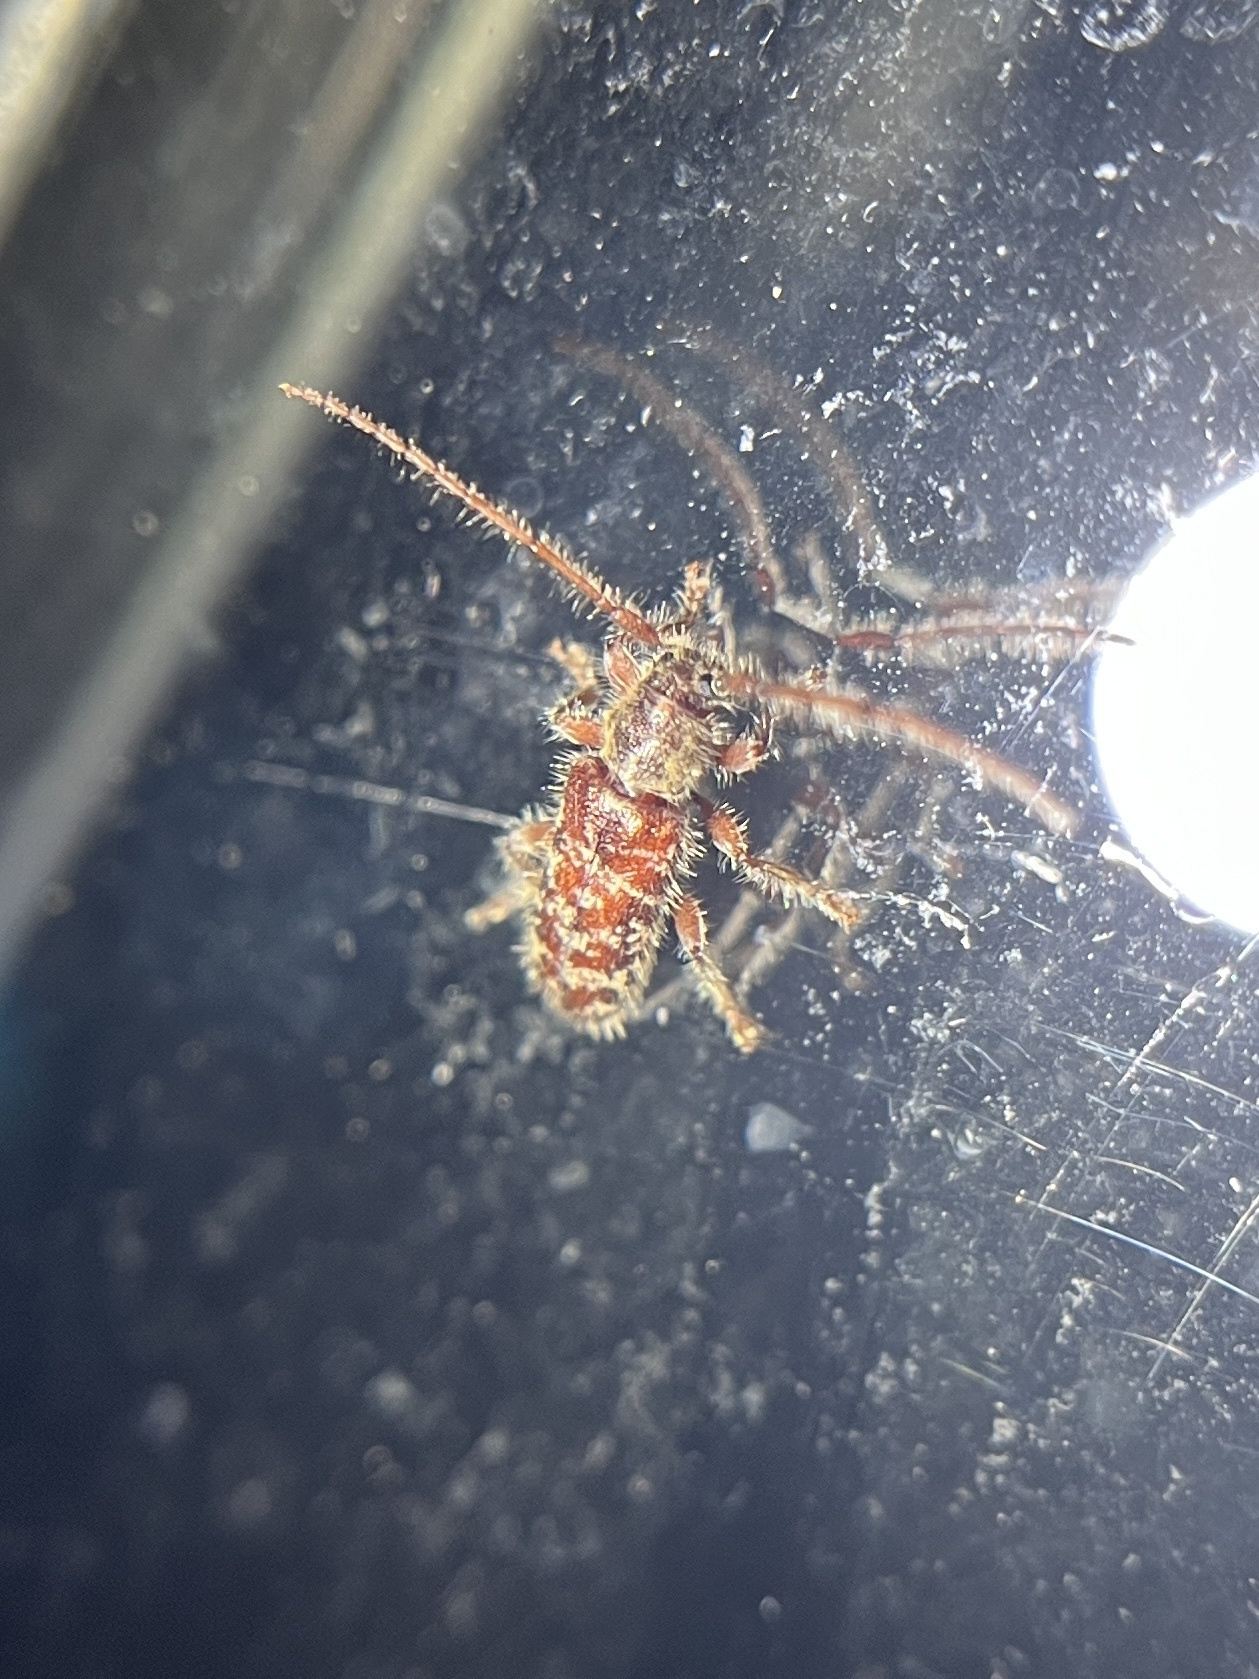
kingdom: Animalia
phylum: Arthropoda
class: Insecta
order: Coleoptera
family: Cerambycidae
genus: Eupogonius
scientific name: Eupogonius tomentosus
